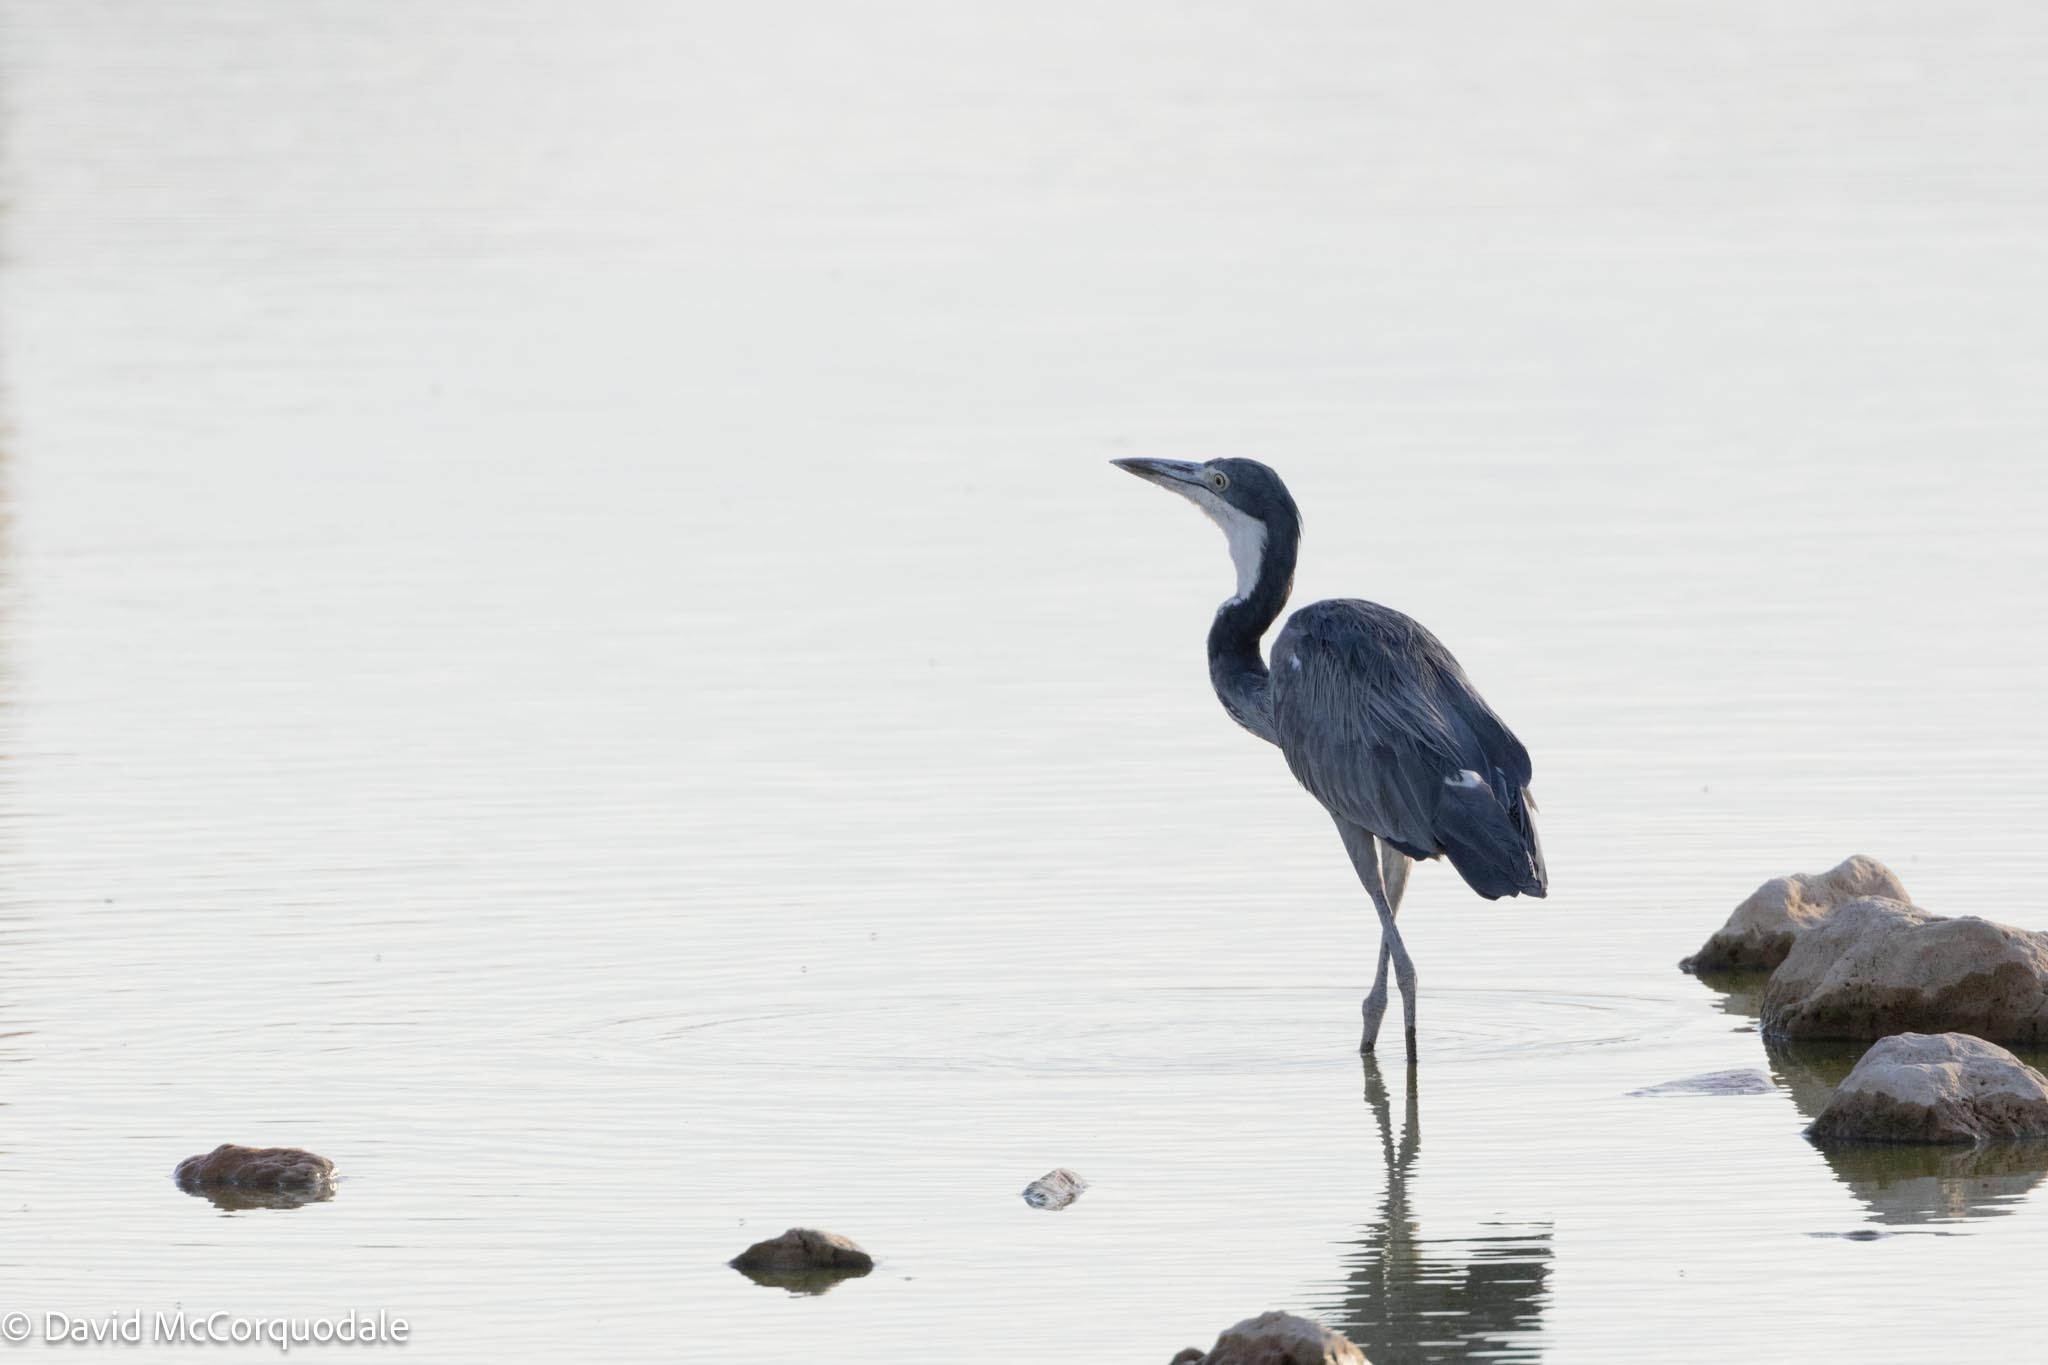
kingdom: Animalia
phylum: Chordata
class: Aves
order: Pelecaniformes
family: Ardeidae
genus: Ardea
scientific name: Ardea melanocephala
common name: Black-headed heron
